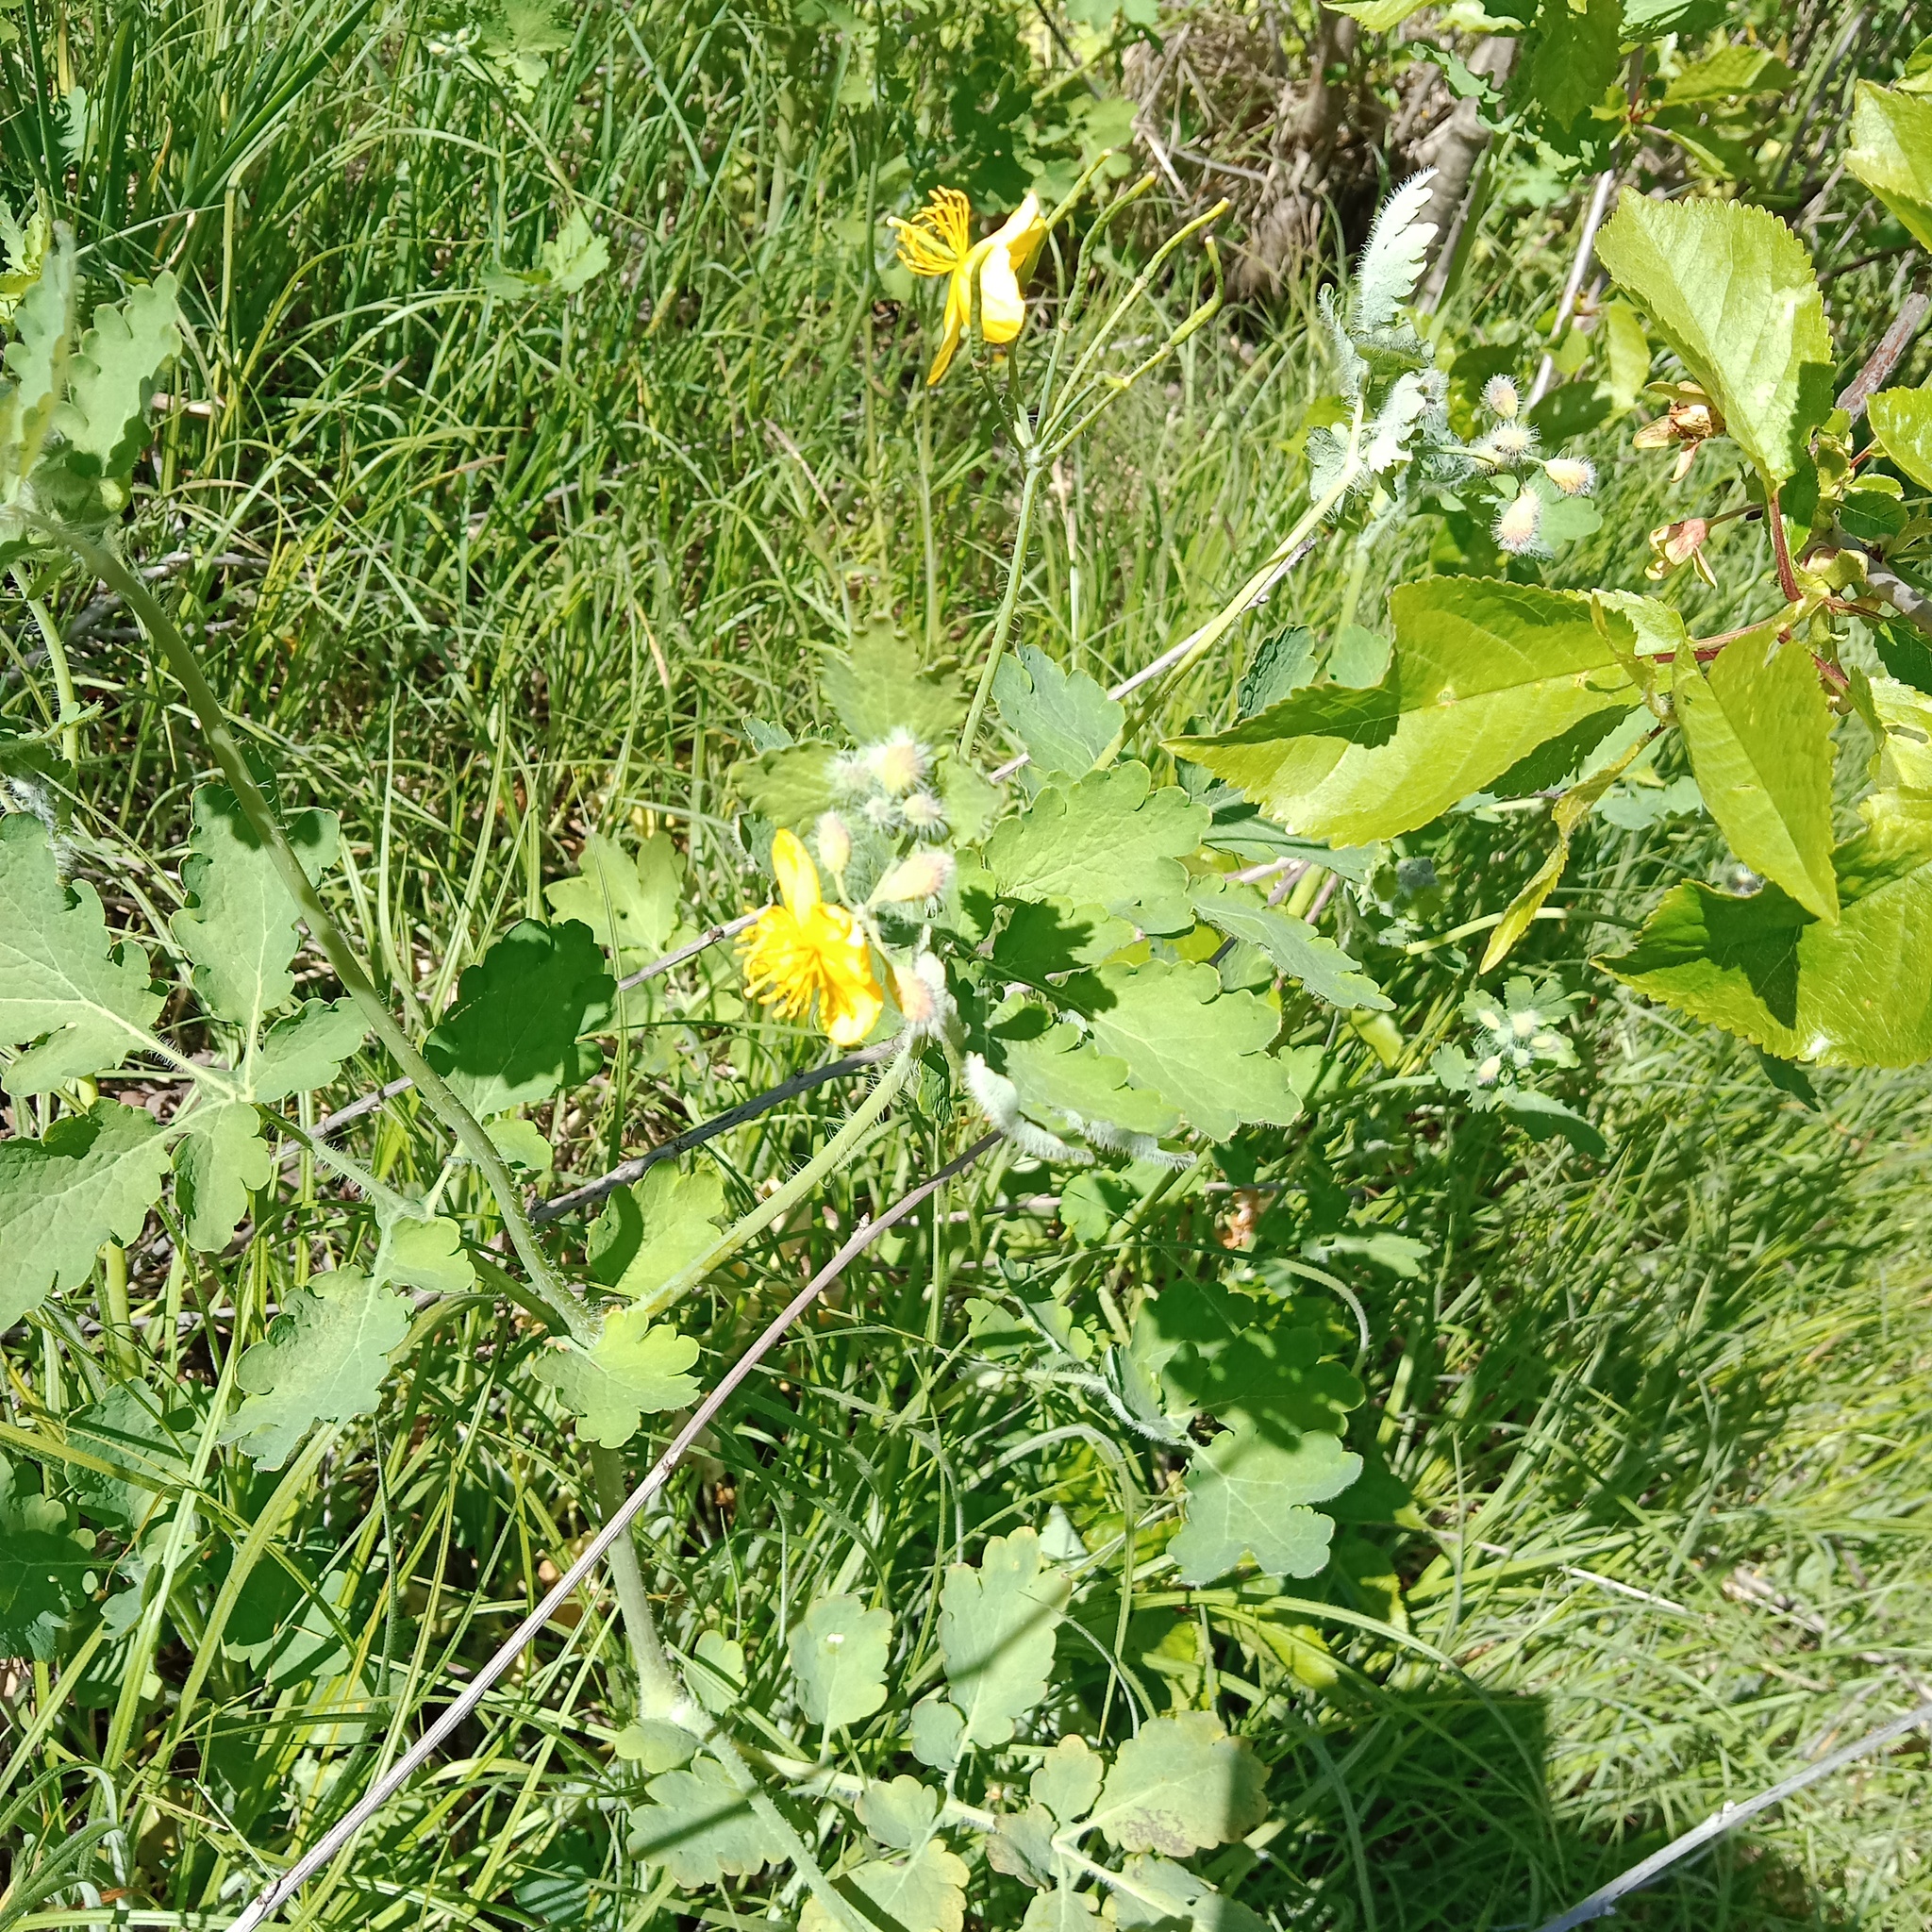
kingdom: Plantae
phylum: Tracheophyta
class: Magnoliopsida
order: Ranunculales
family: Papaveraceae
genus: Chelidonium
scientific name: Chelidonium majus
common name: Greater celandine
